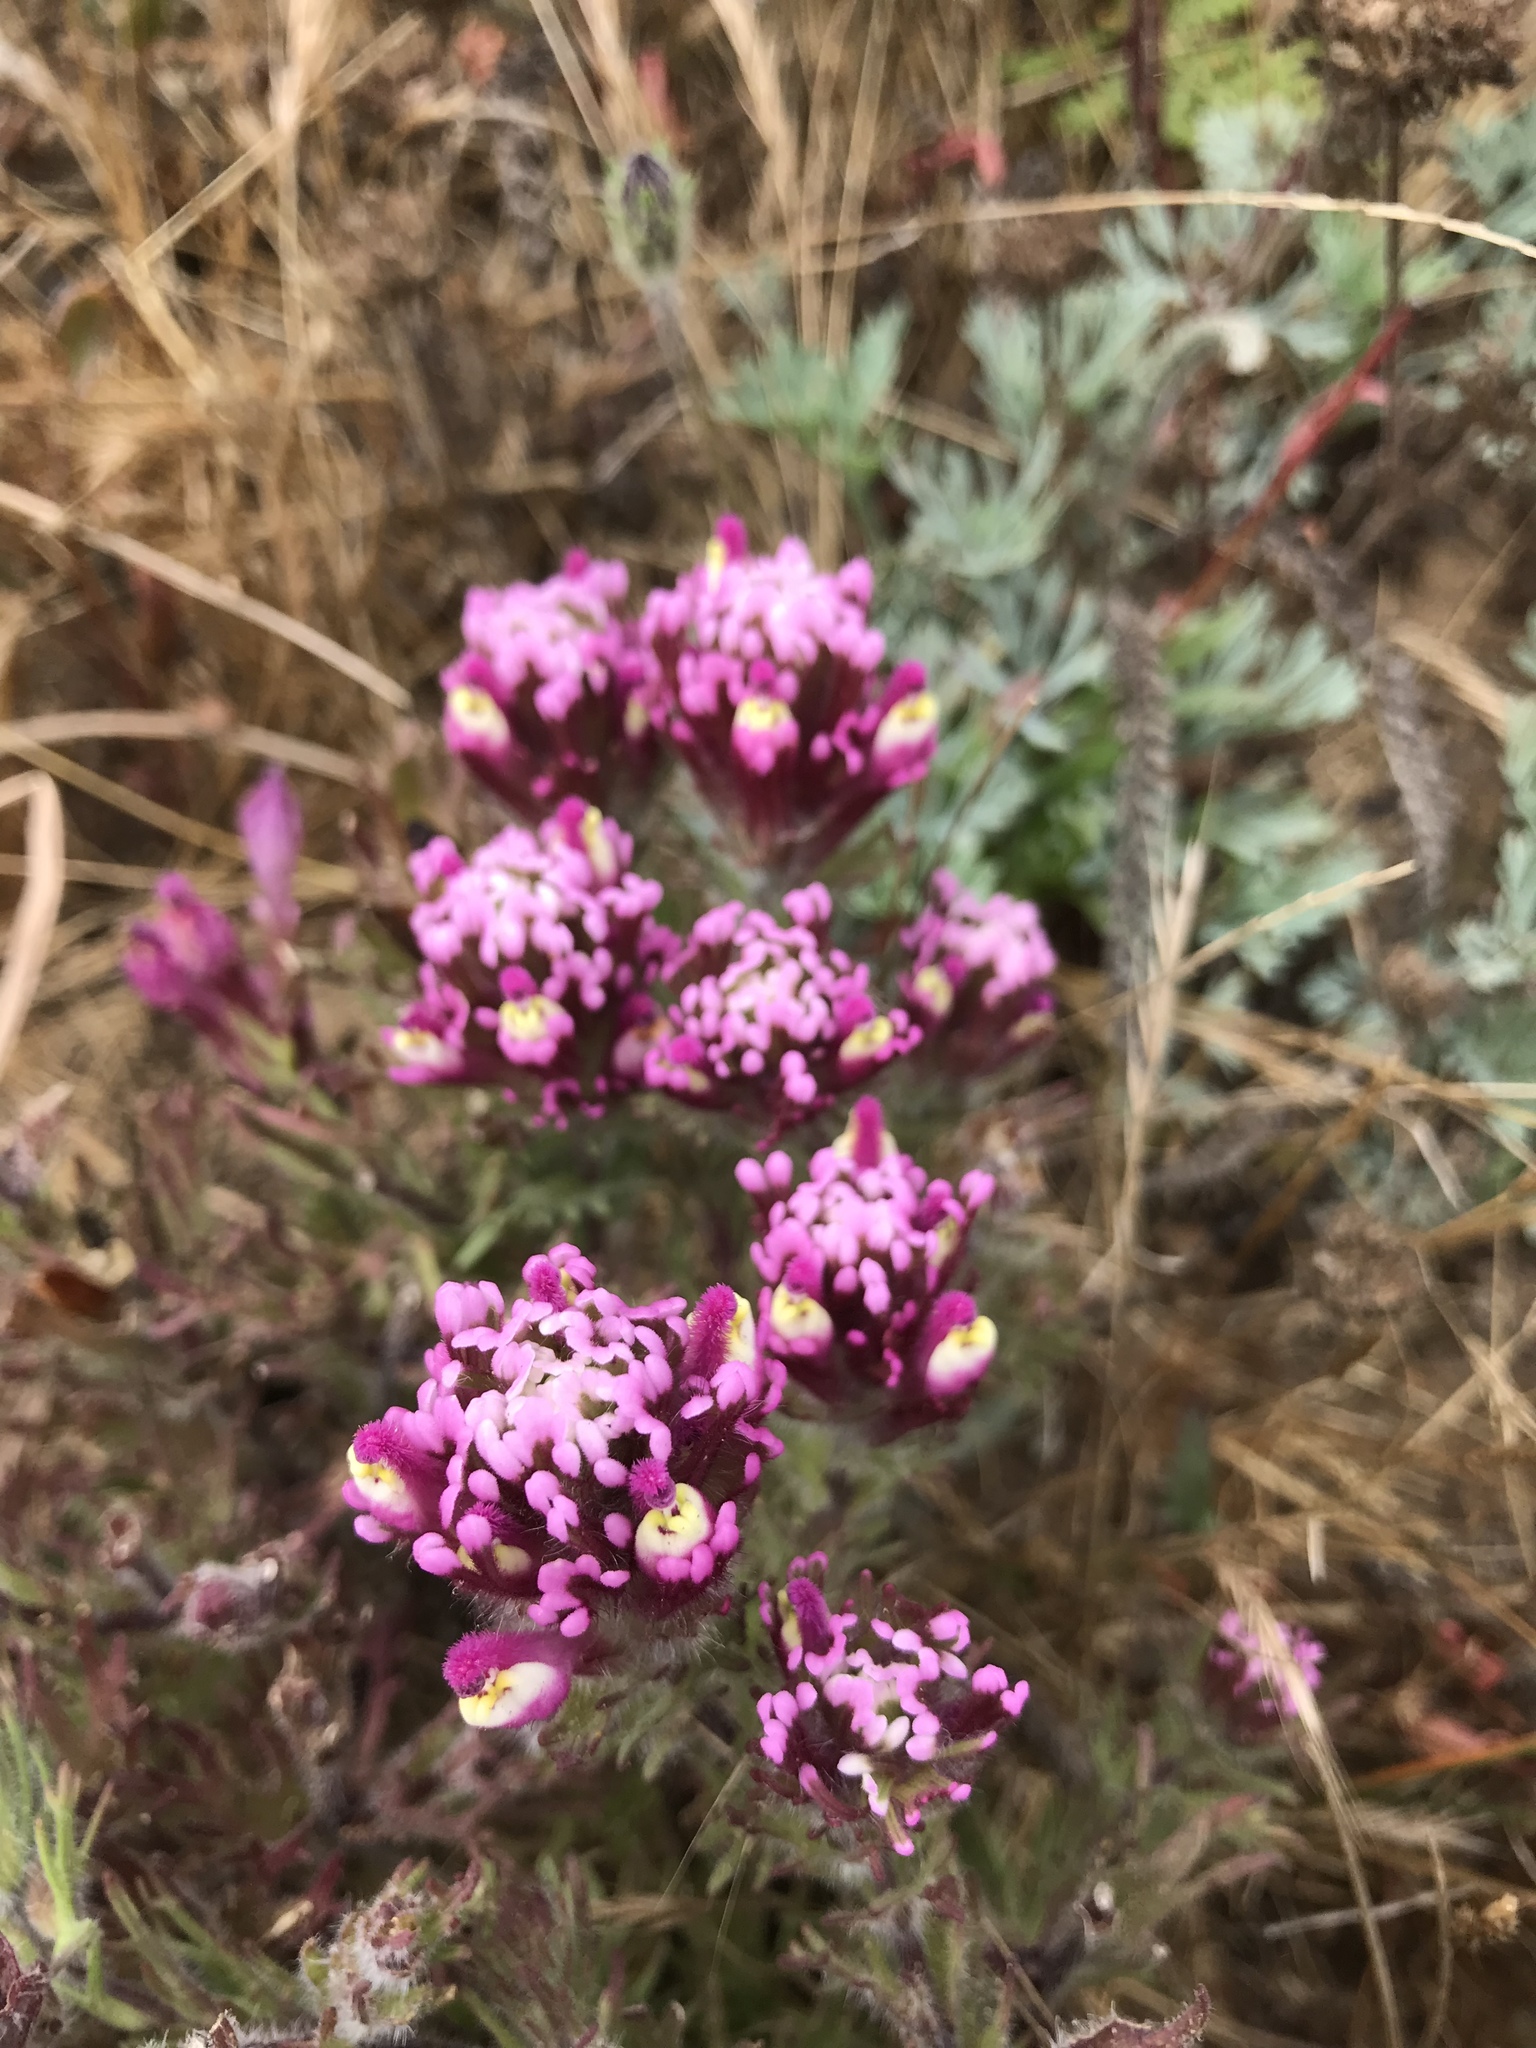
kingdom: Plantae
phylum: Tracheophyta
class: Magnoliopsida
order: Lamiales
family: Orobanchaceae
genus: Castilleja
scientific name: Castilleja exserta
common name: Purple owl-clover
